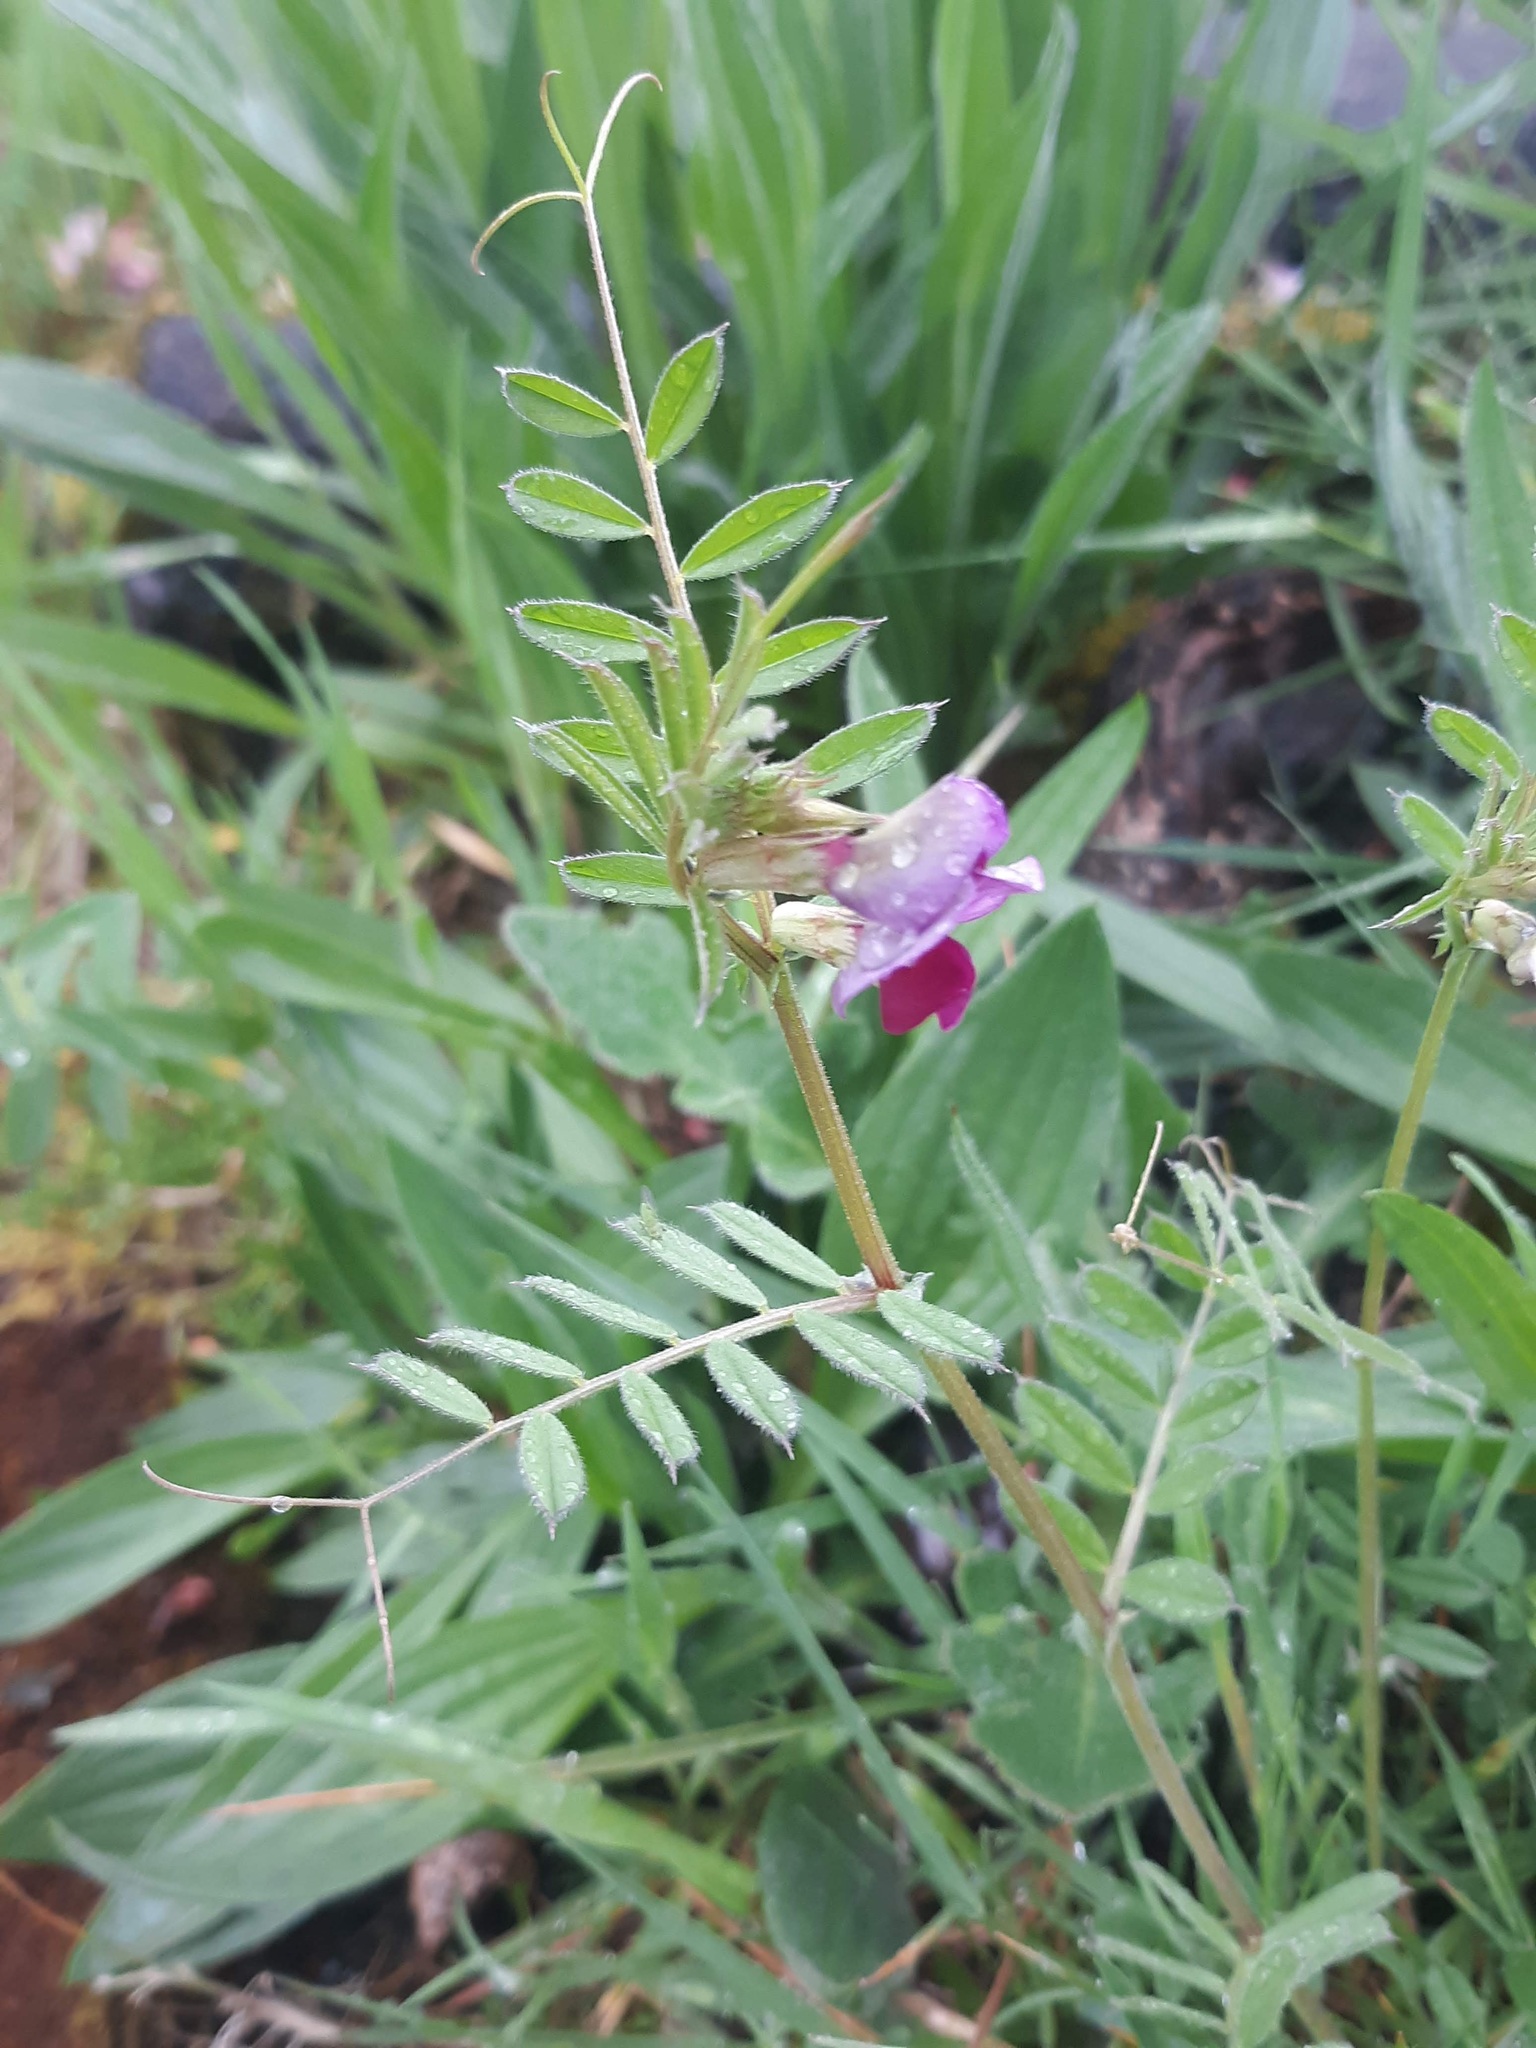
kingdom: Plantae
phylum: Tracheophyta
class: Magnoliopsida
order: Fabales
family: Fabaceae
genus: Vicia
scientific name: Vicia sativa
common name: Garden vetch
